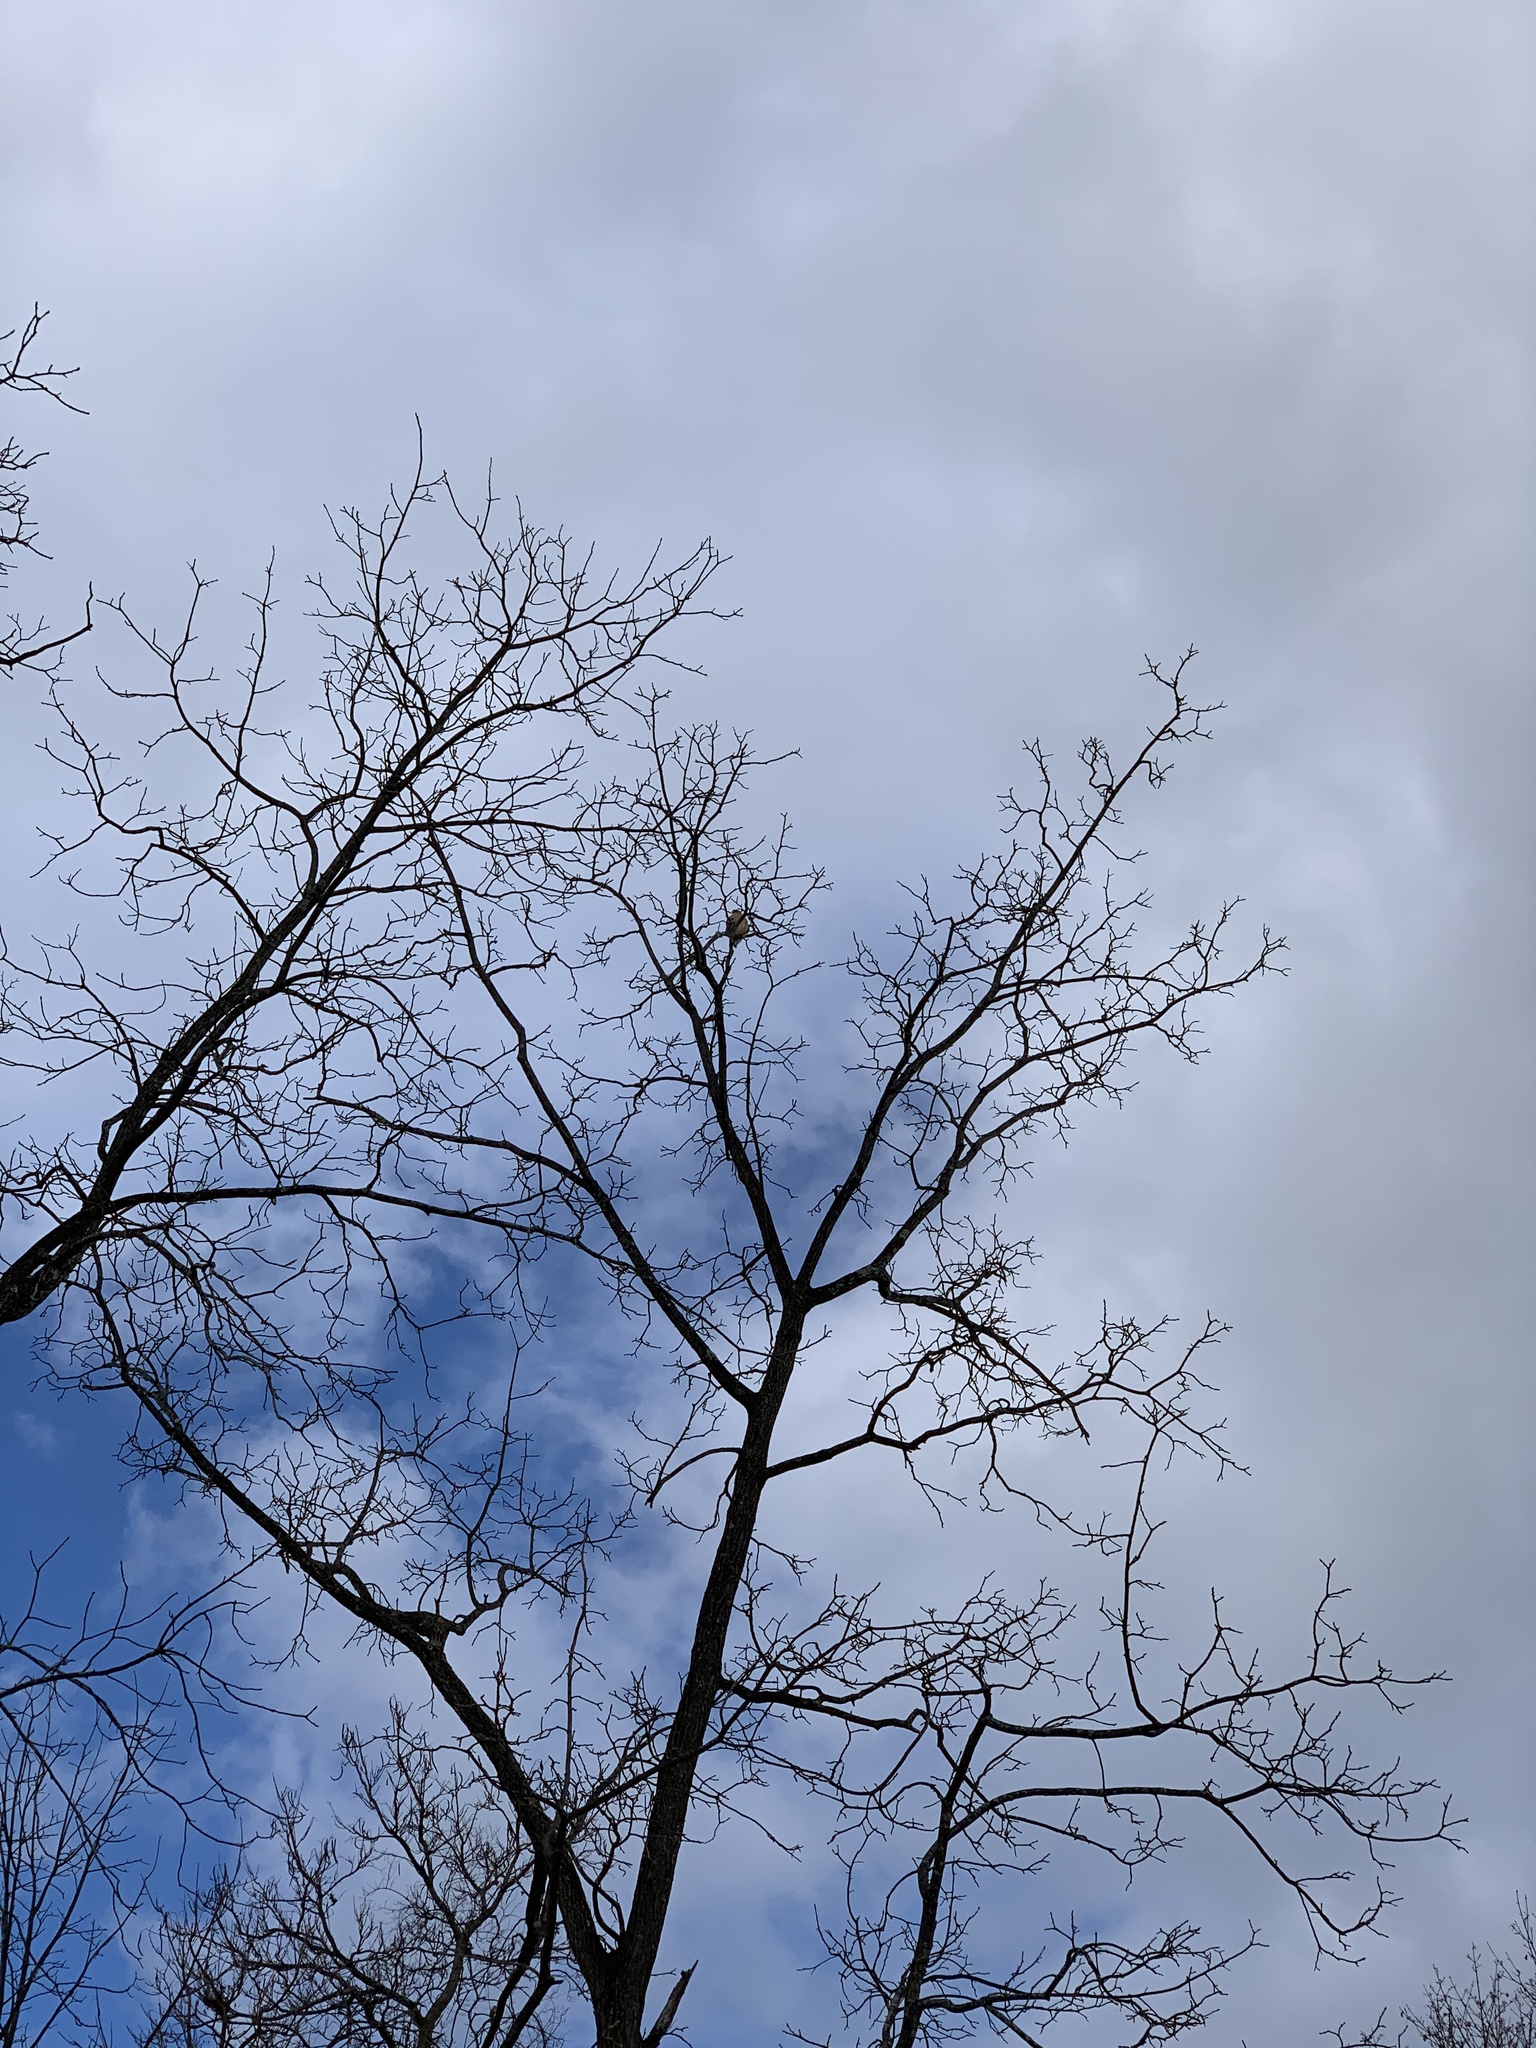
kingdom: Animalia
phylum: Chordata
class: Aves
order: Accipitriformes
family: Accipitridae
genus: Buteo
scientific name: Buteo lineatus
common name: Red-shouldered hawk
